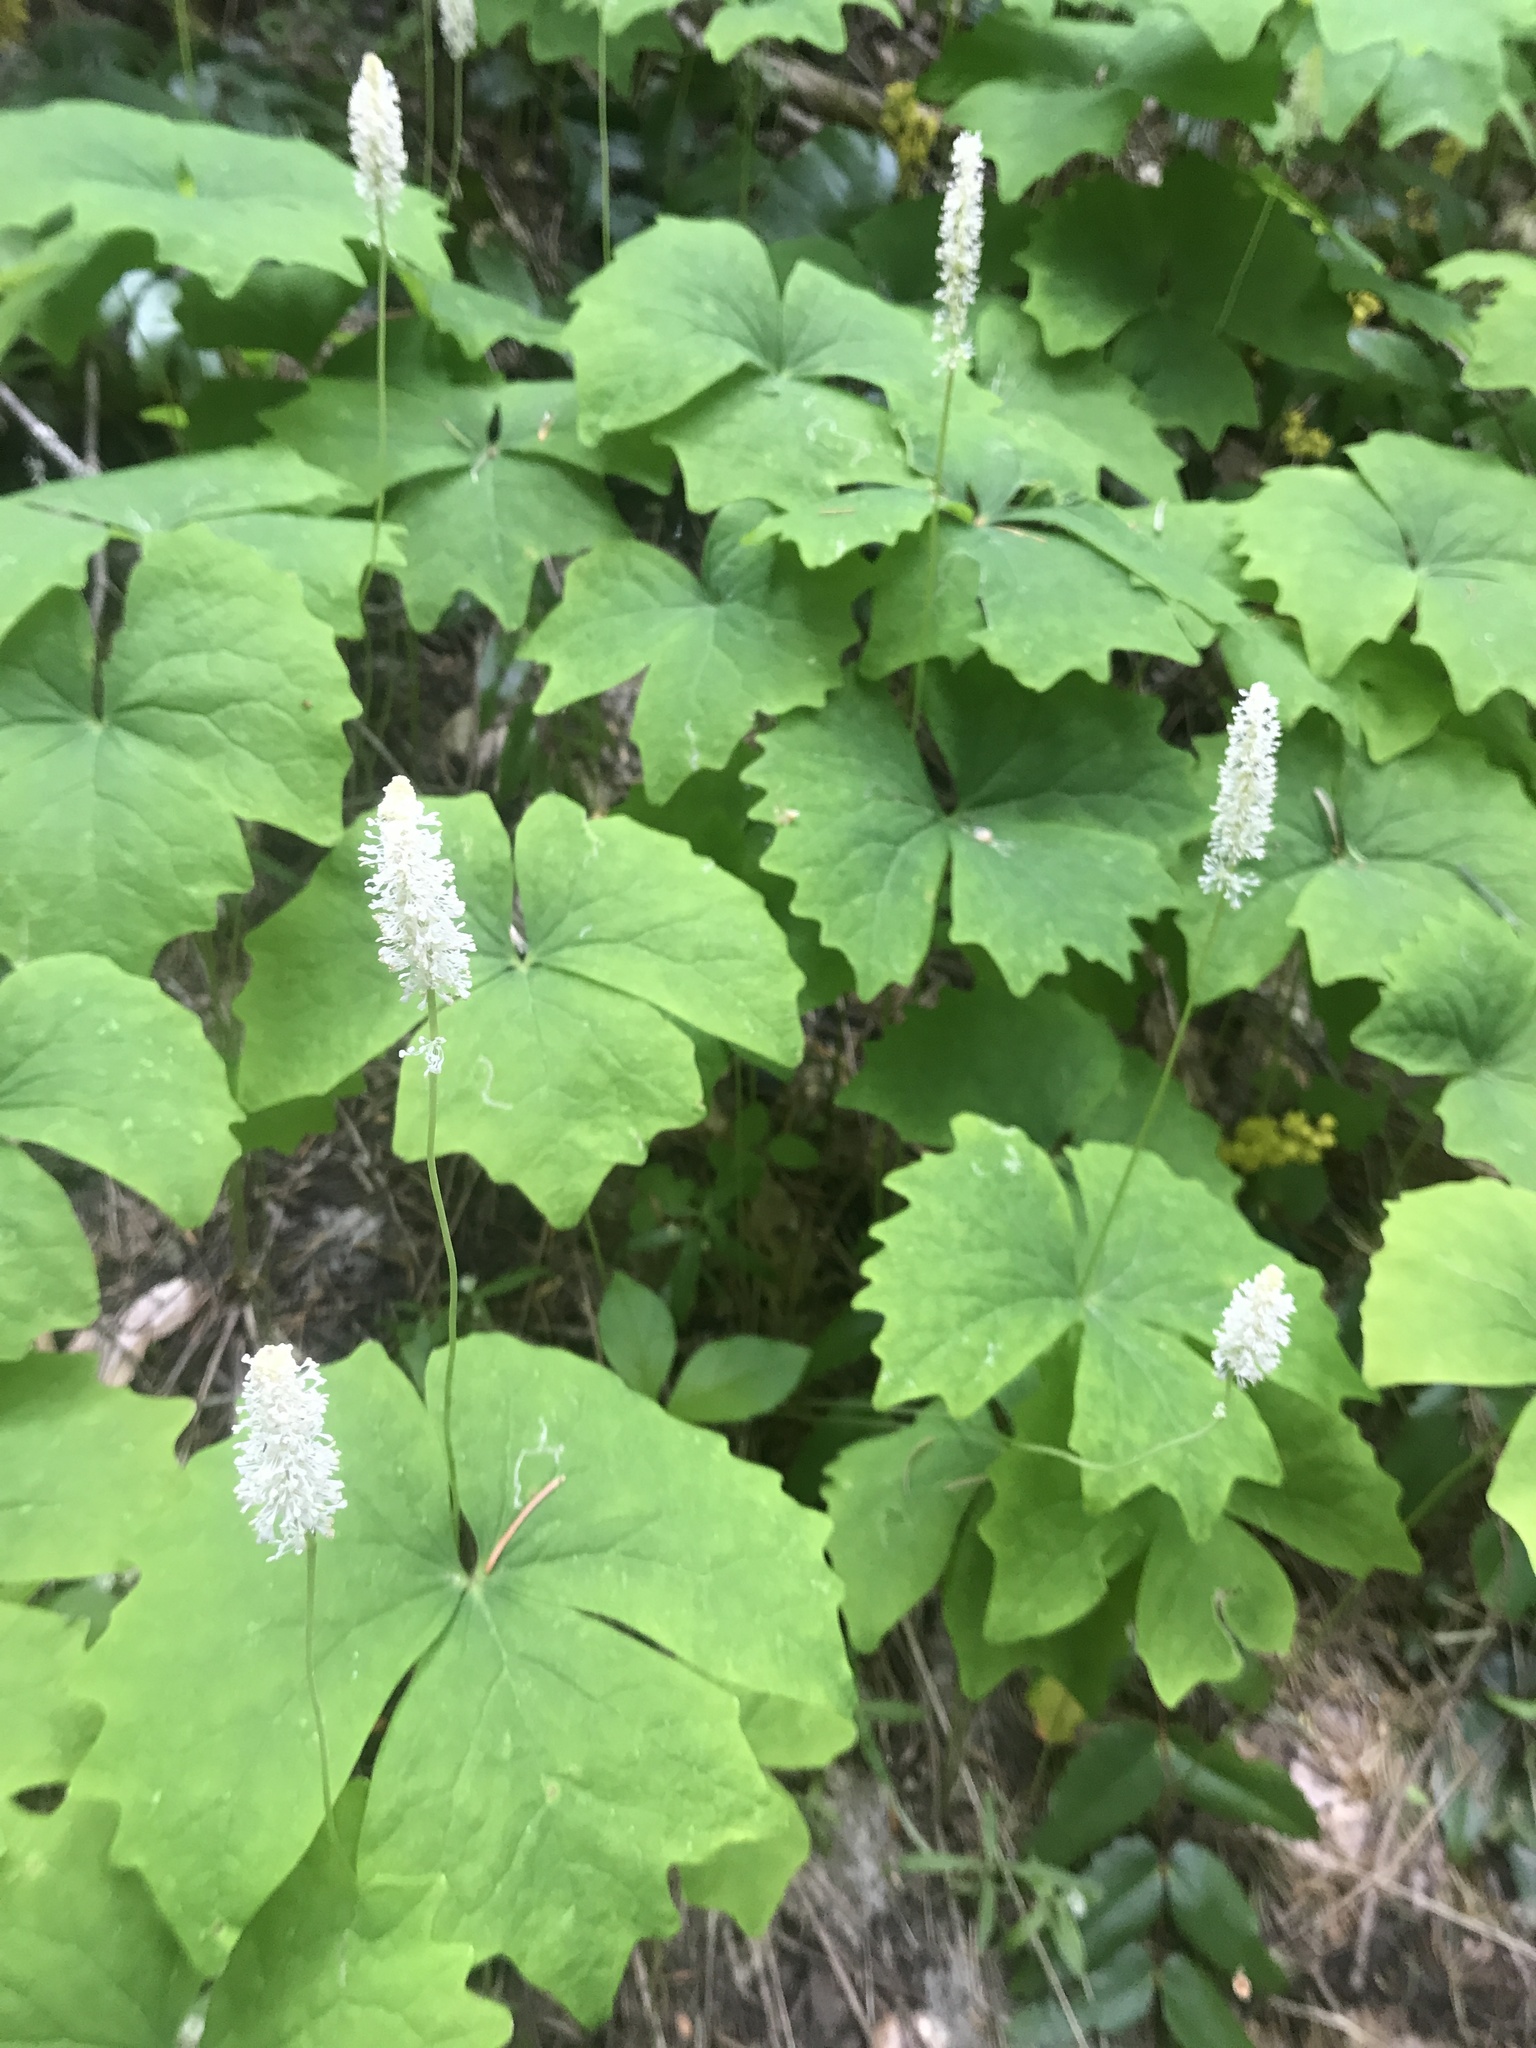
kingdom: Plantae
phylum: Tracheophyta
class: Magnoliopsida
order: Ranunculales
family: Berberidaceae
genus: Achlys
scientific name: Achlys triphylla
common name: Vanilla-leaf
